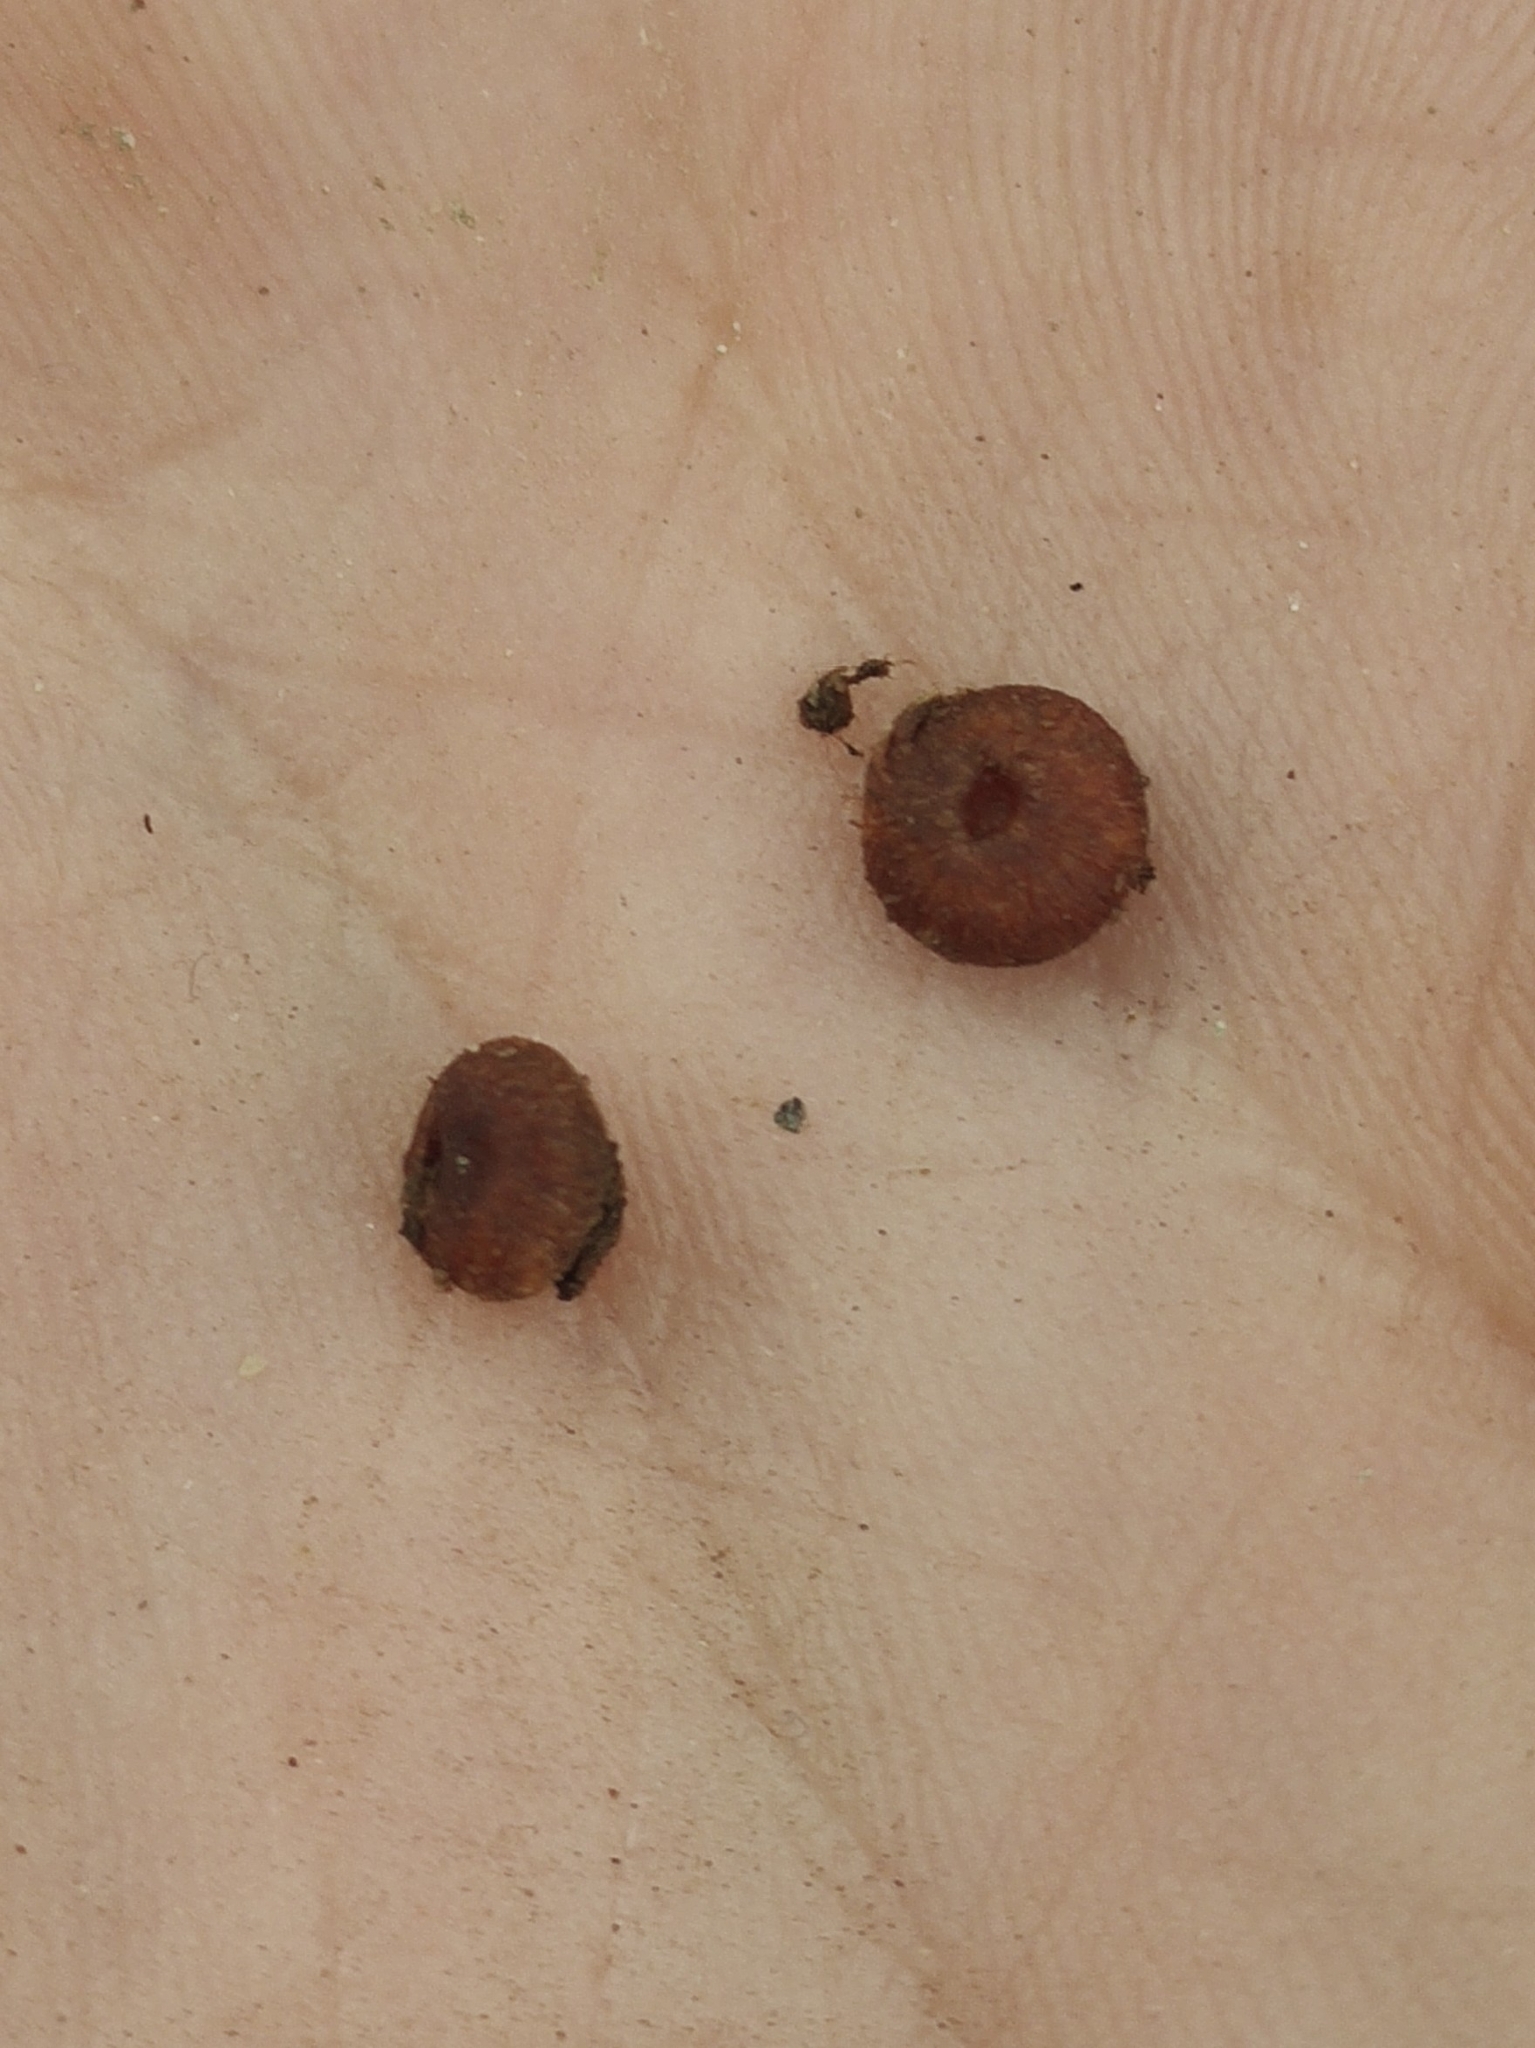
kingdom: Animalia
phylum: Arthropoda
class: Insecta
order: Hymenoptera
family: Cynipidae
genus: Neuroterus
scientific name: Neuroterus numismalis
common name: Silk-button spangle gall
